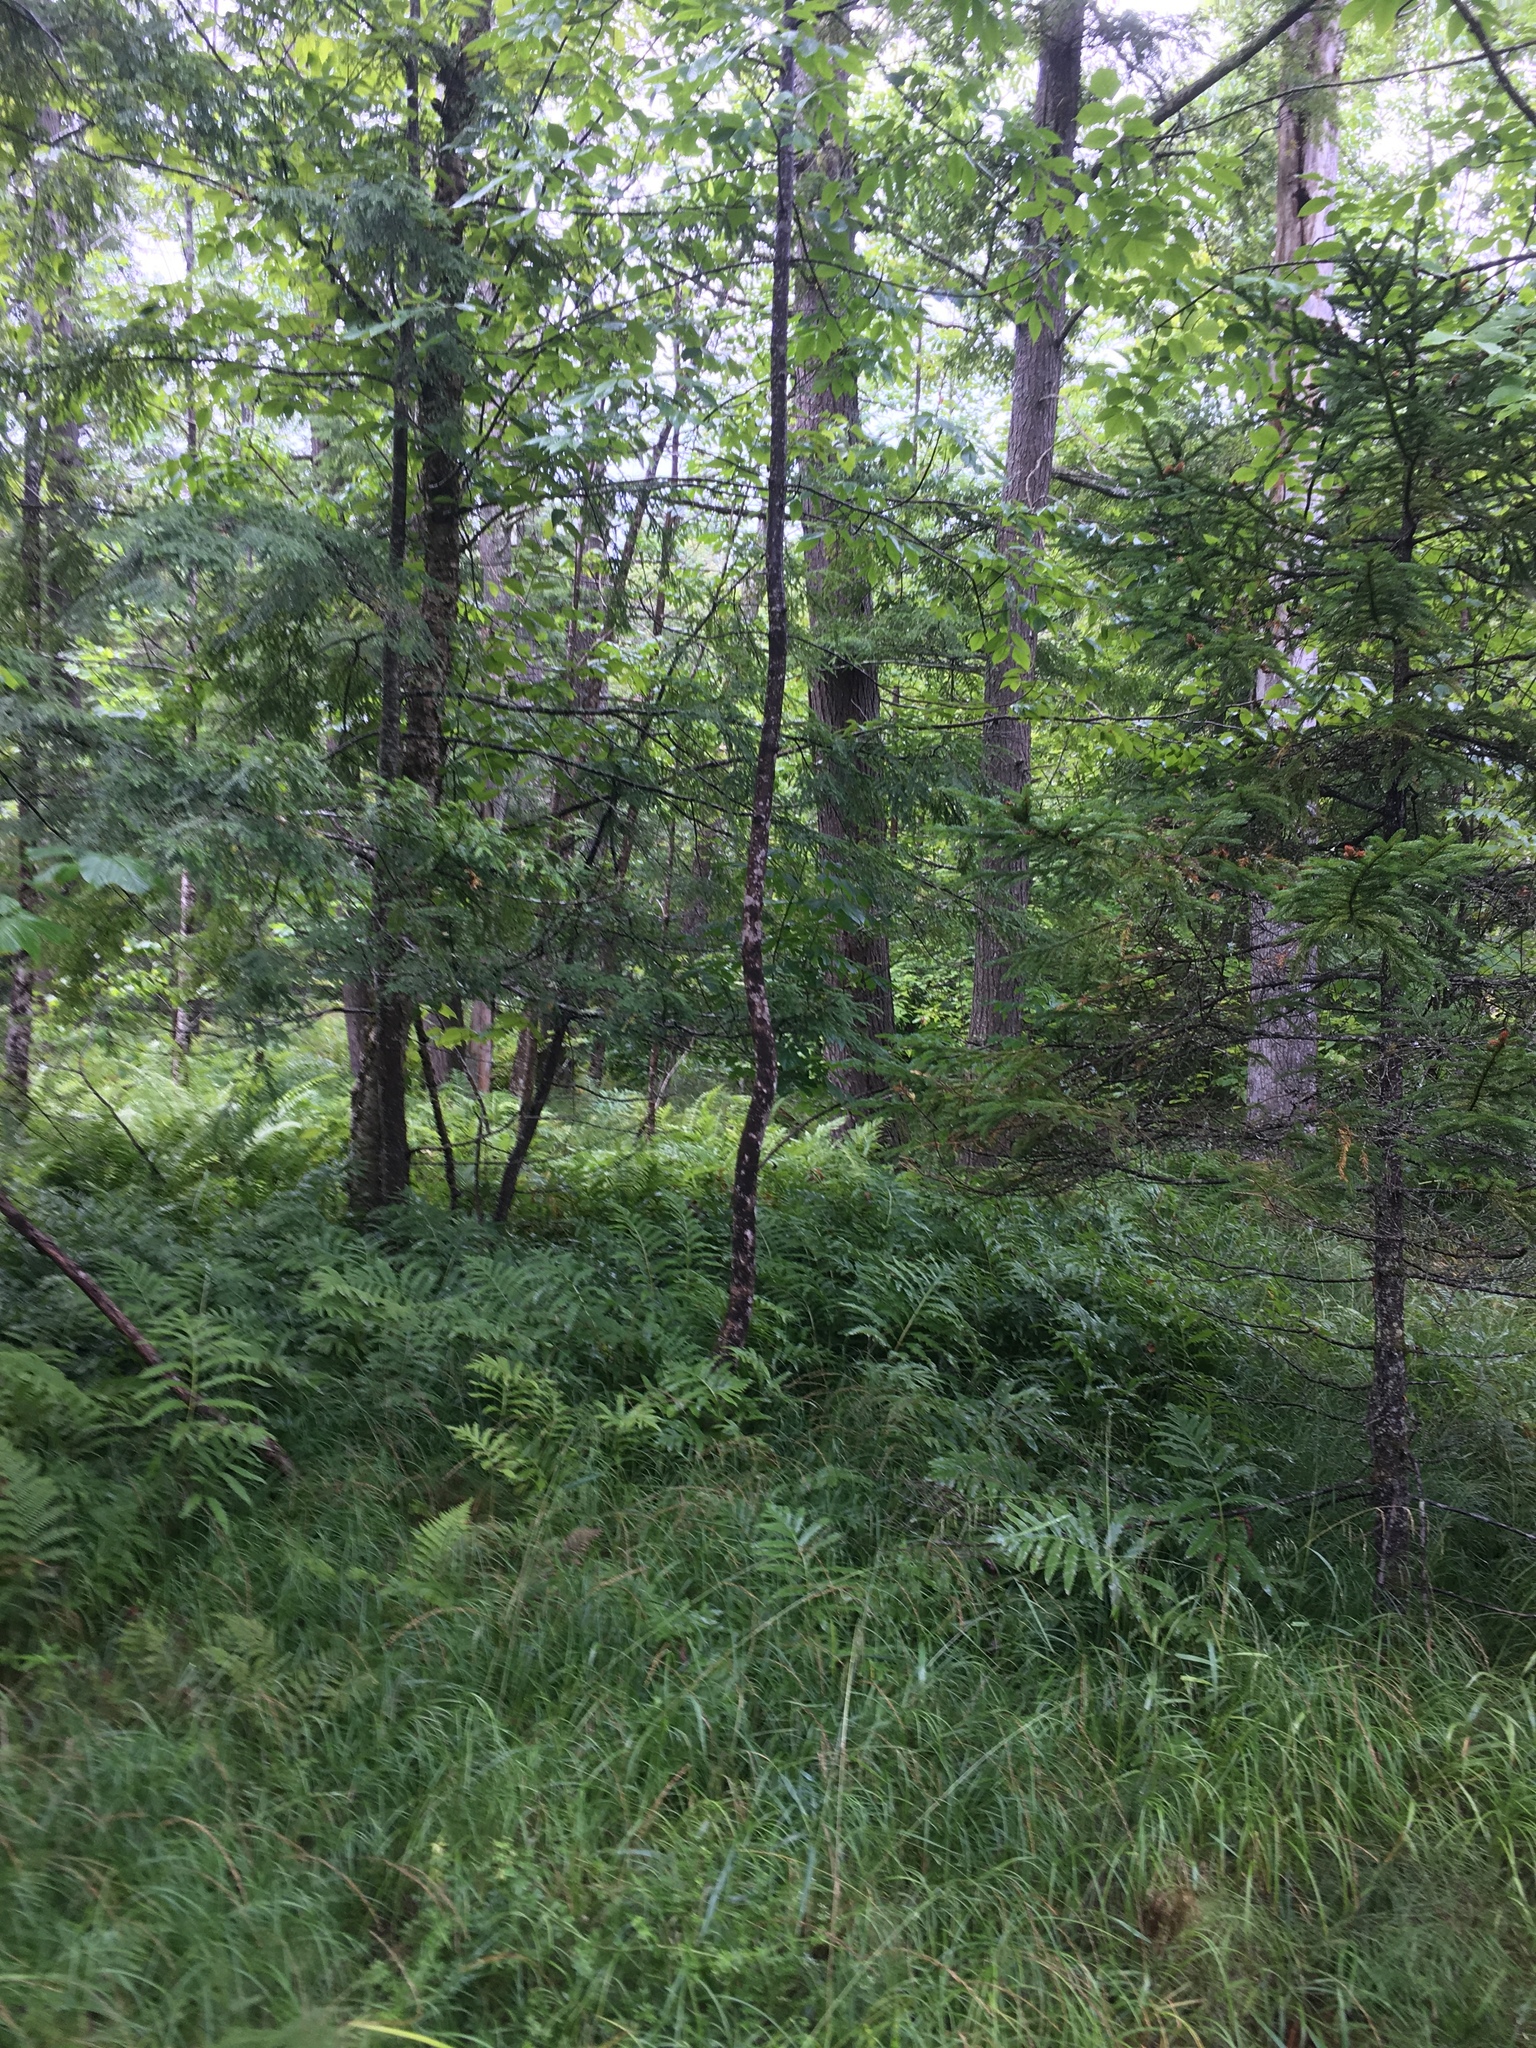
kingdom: Plantae
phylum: Tracheophyta
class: Pinopsida
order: Pinales
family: Pinaceae
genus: Tsuga
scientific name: Tsuga canadensis
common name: Eastern hemlock
